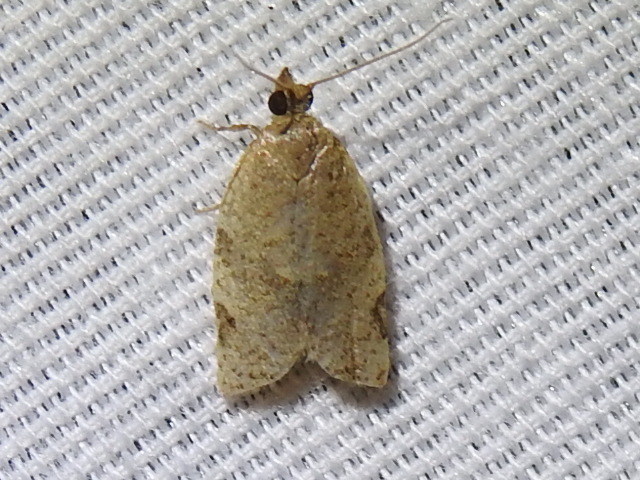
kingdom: Animalia
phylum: Arthropoda
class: Insecta
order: Lepidoptera
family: Tortricidae
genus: Clepsis
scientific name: Clepsis virescana
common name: Greenish apple moth
